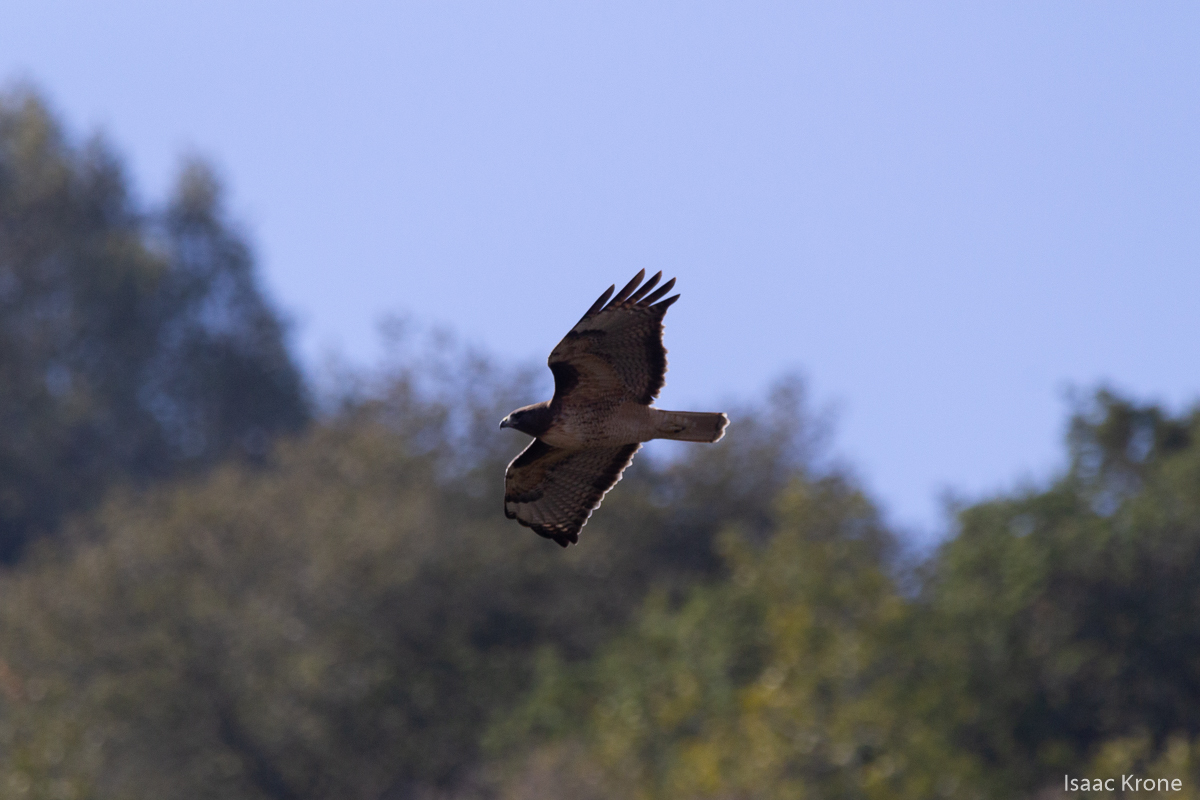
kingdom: Animalia
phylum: Chordata
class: Aves
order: Accipitriformes
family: Accipitridae
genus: Buteo
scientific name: Buteo jamaicensis
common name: Red-tailed hawk
